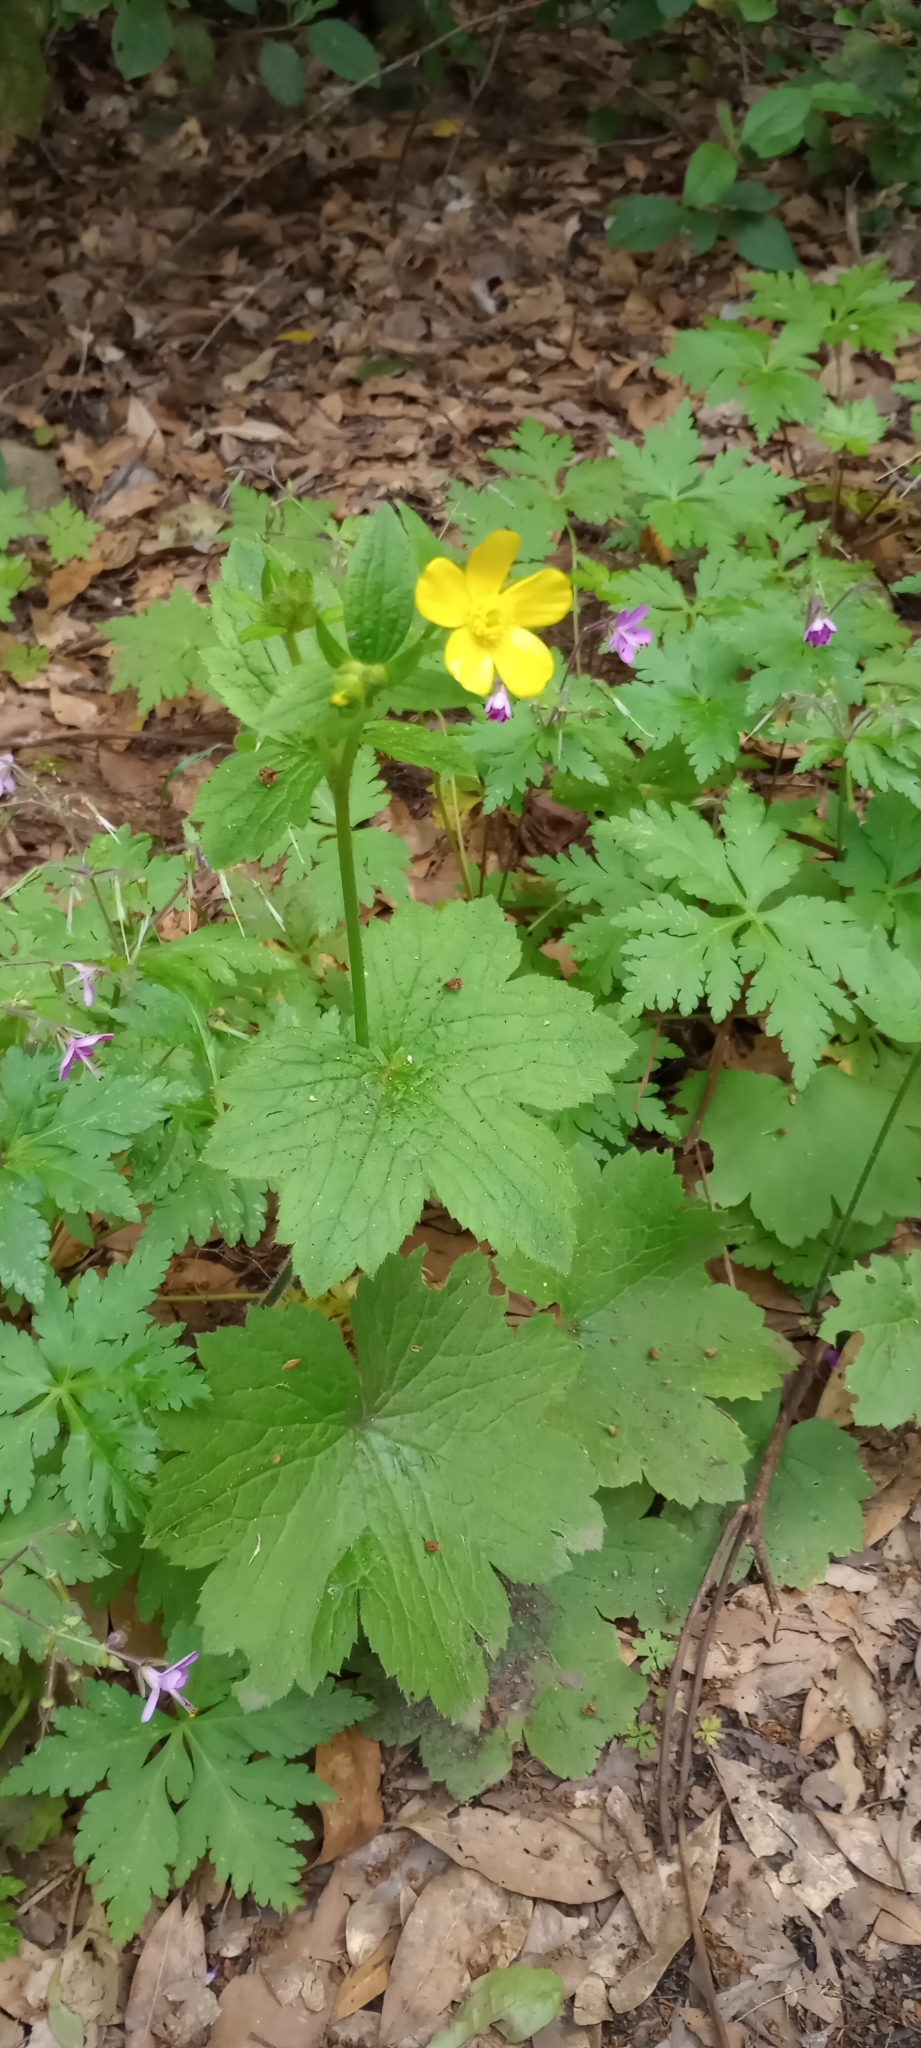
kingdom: Plantae
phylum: Tracheophyta
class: Magnoliopsida
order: Ranunculales
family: Ranunculaceae
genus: Ranunculus
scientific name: Ranunculus cortusifolius
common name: Azores buttercup
